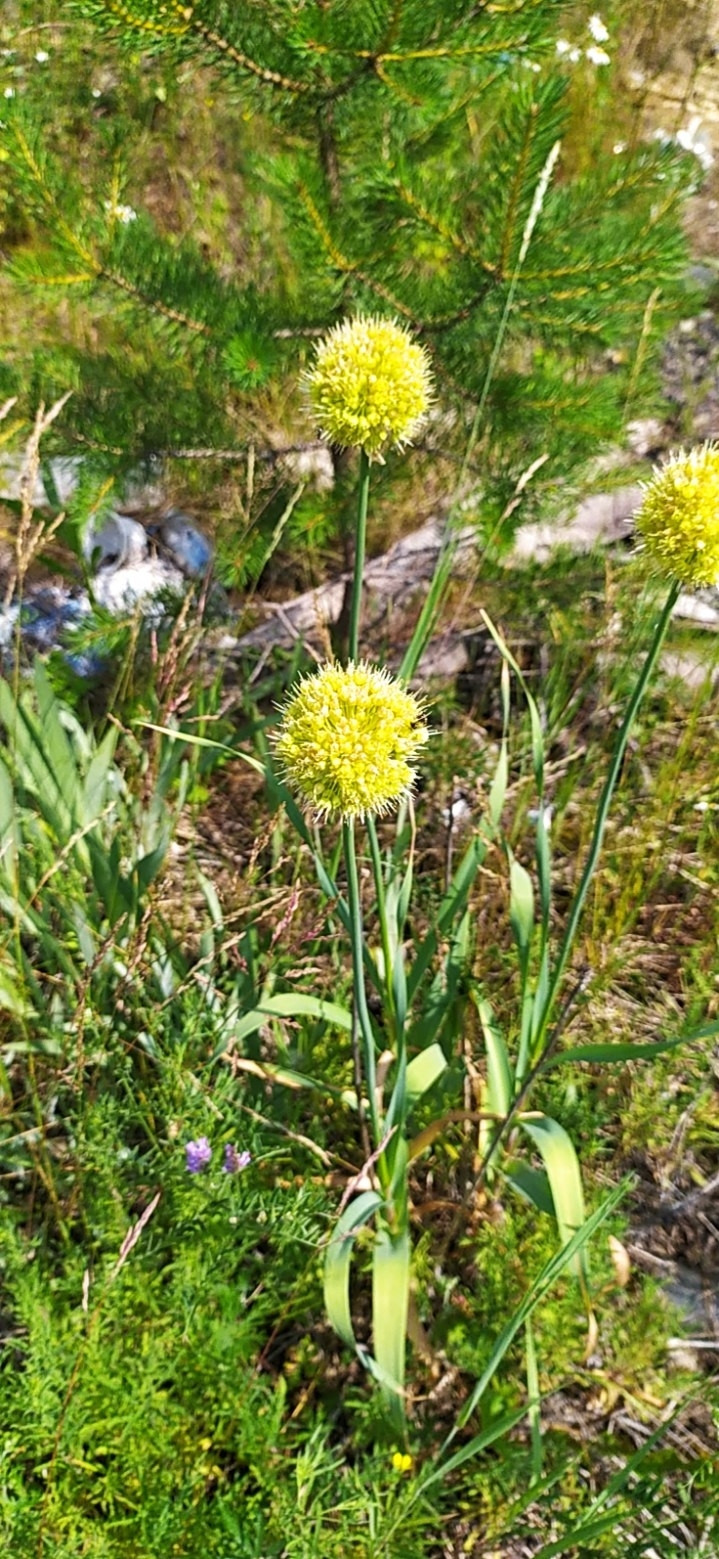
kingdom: Plantae
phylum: Tracheophyta
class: Liliopsida
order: Asparagales
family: Amaryllidaceae
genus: Allium
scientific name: Allium obliquum
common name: Oblique onion
